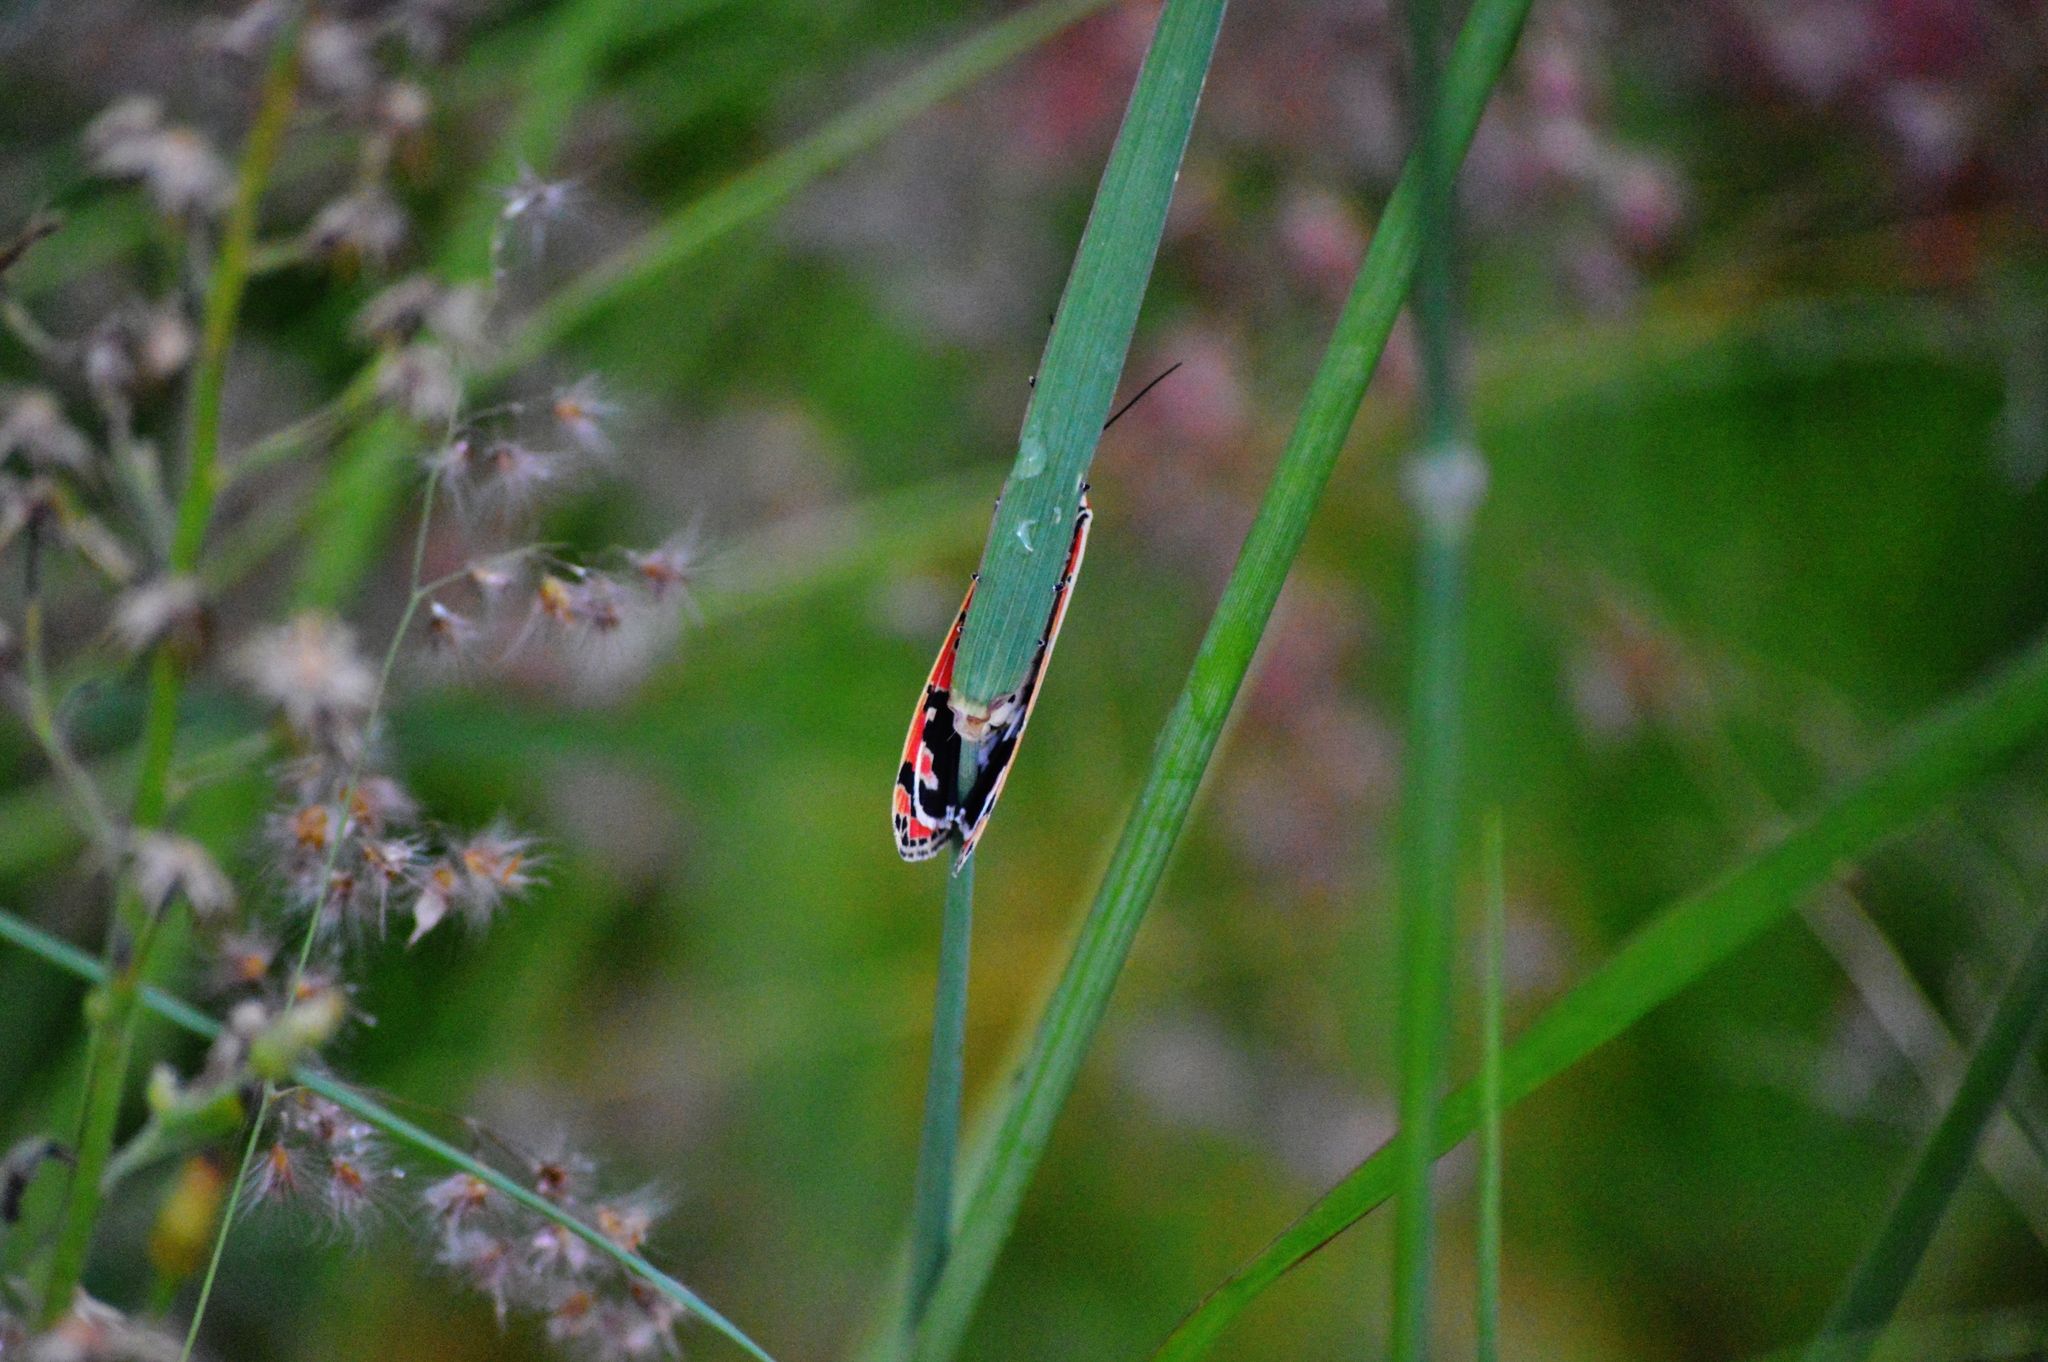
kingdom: Animalia
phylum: Arthropoda
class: Insecta
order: Lepidoptera
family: Erebidae
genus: Utetheisa
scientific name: Utetheisa ornatrix
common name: Beautiful utetheisa
